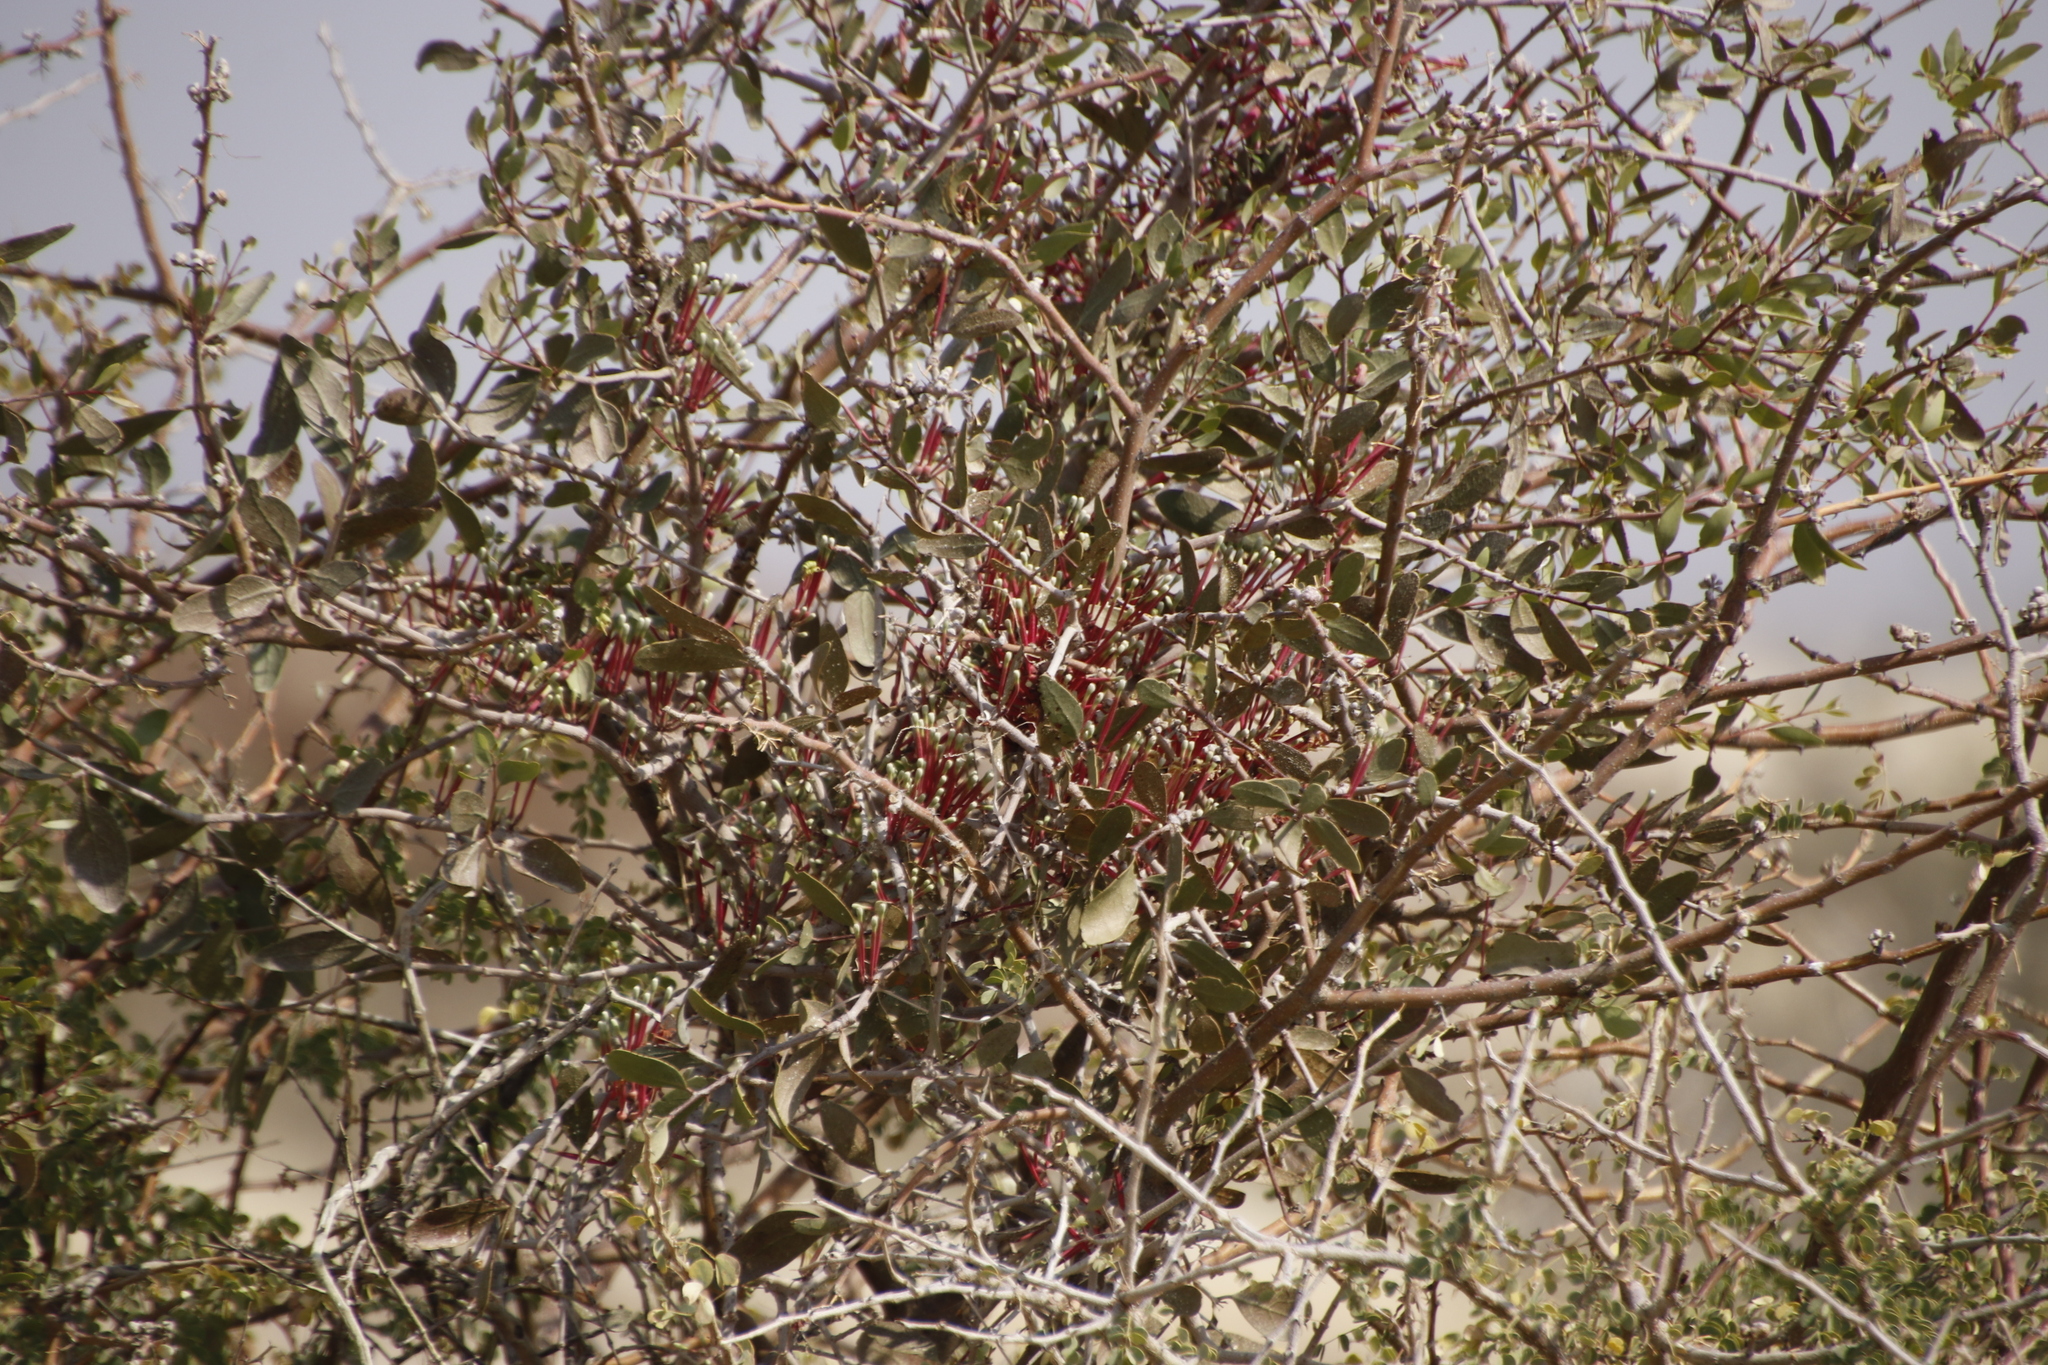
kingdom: Plantae
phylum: Tracheophyta
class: Magnoliopsida
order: Santalales
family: Loranthaceae
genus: Tapinanthus
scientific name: Tapinanthus oleifolius
